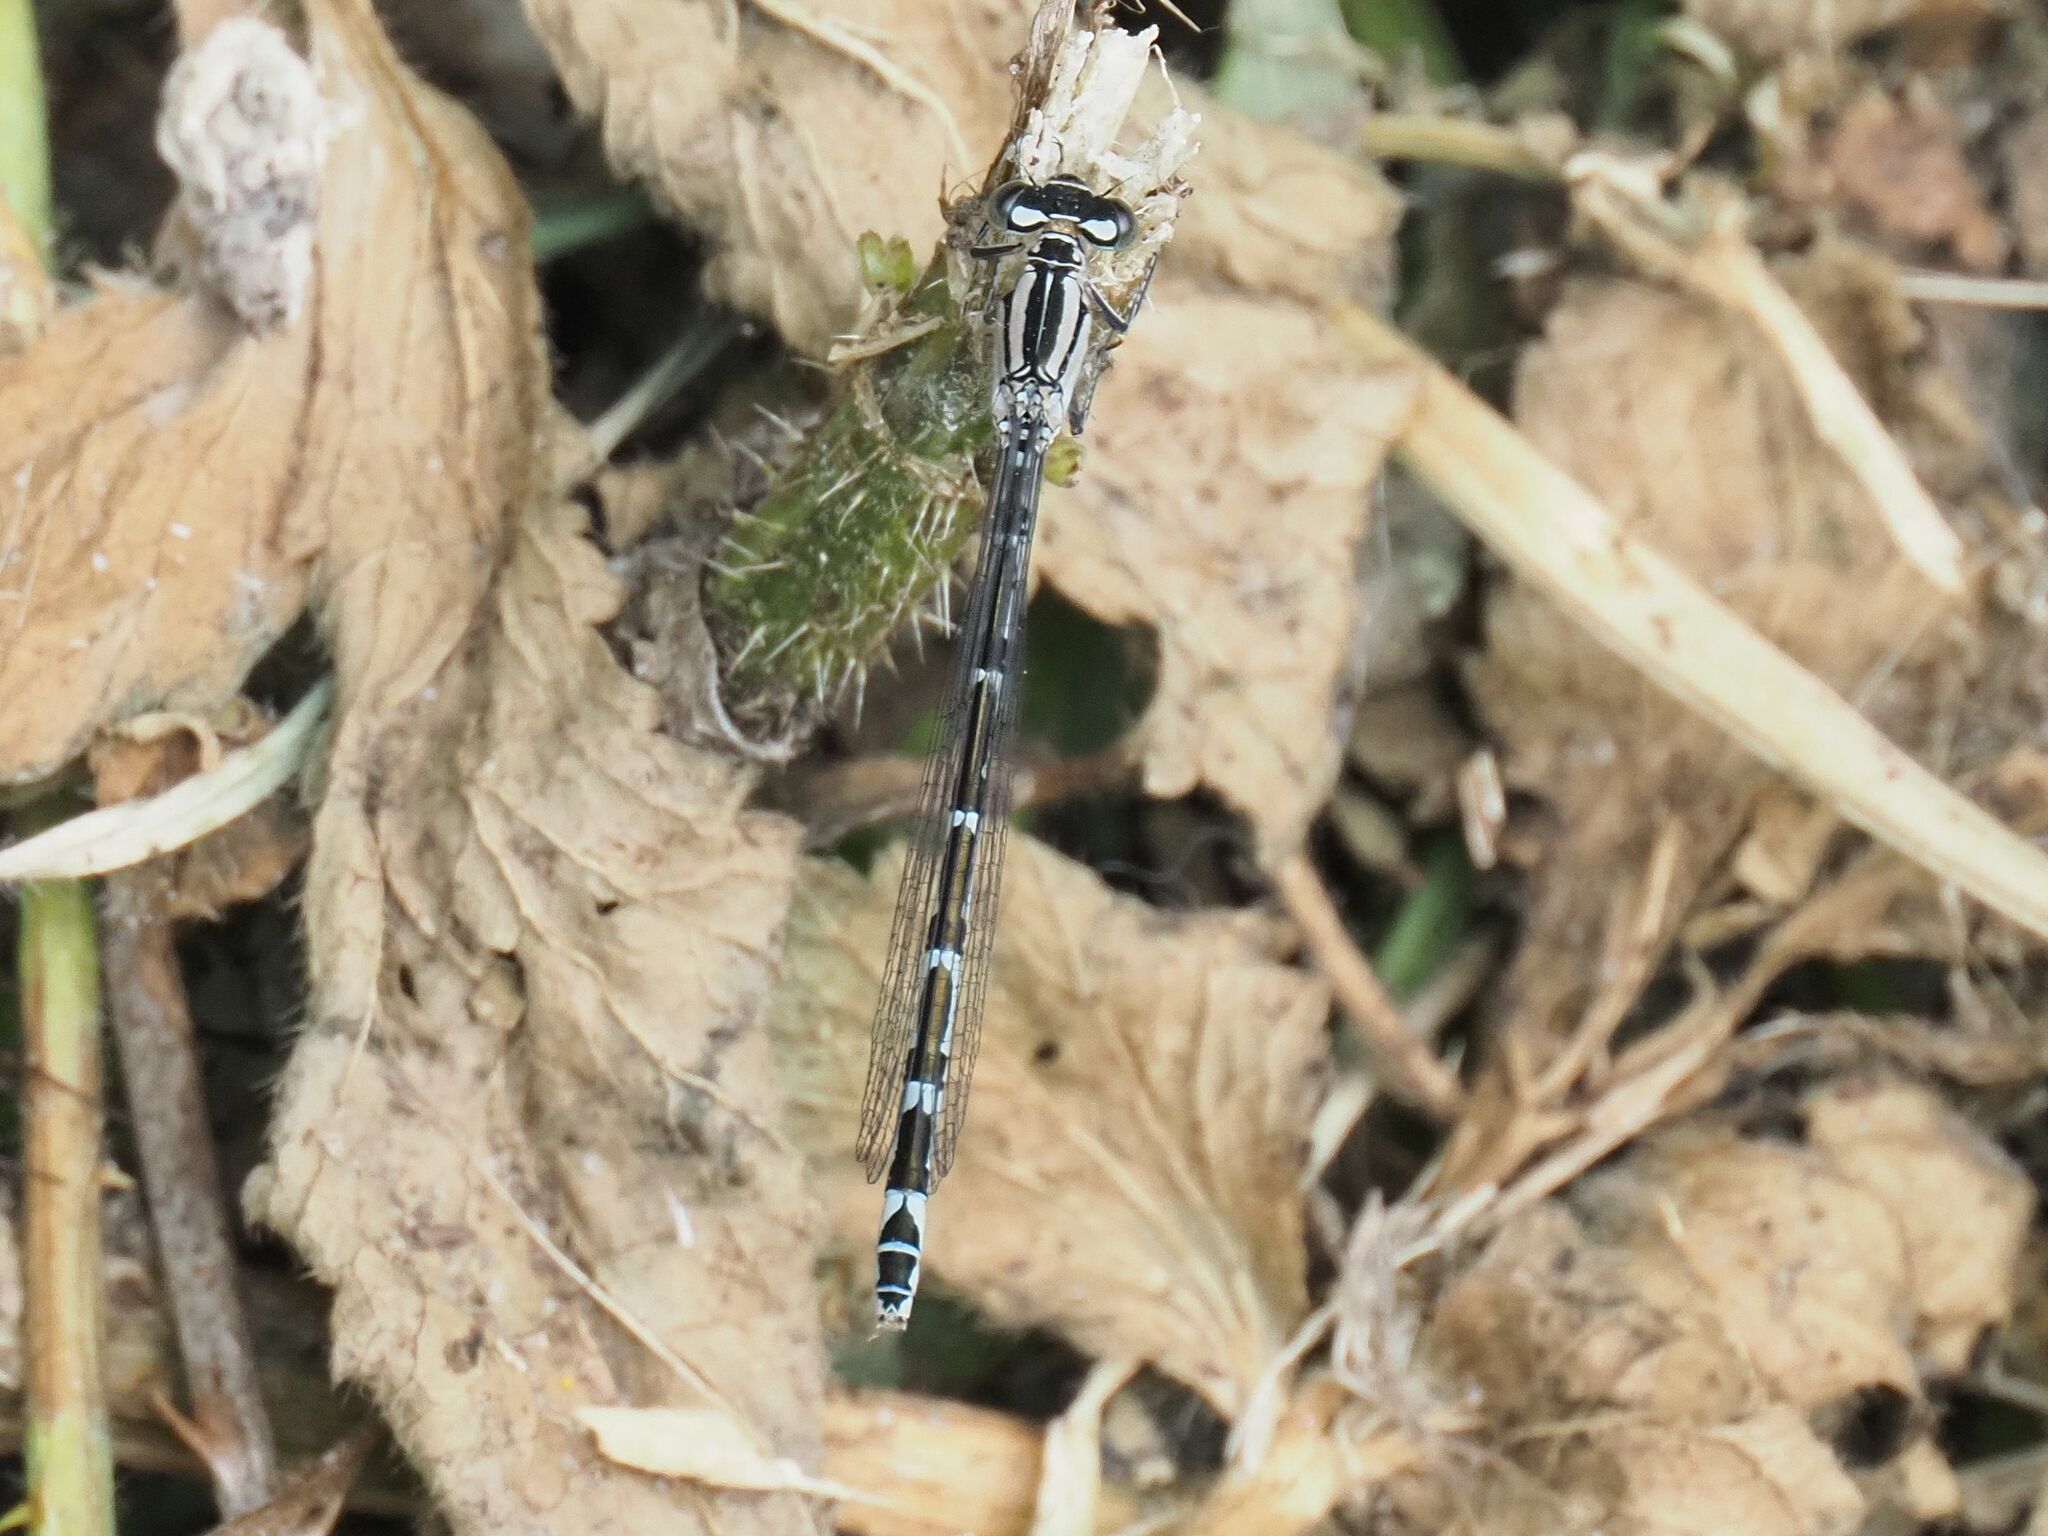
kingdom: Animalia
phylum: Arthropoda
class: Insecta
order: Odonata
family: Coenagrionidae
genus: Enallagma
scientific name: Enallagma cyathigerum
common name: Common blue damselfly
